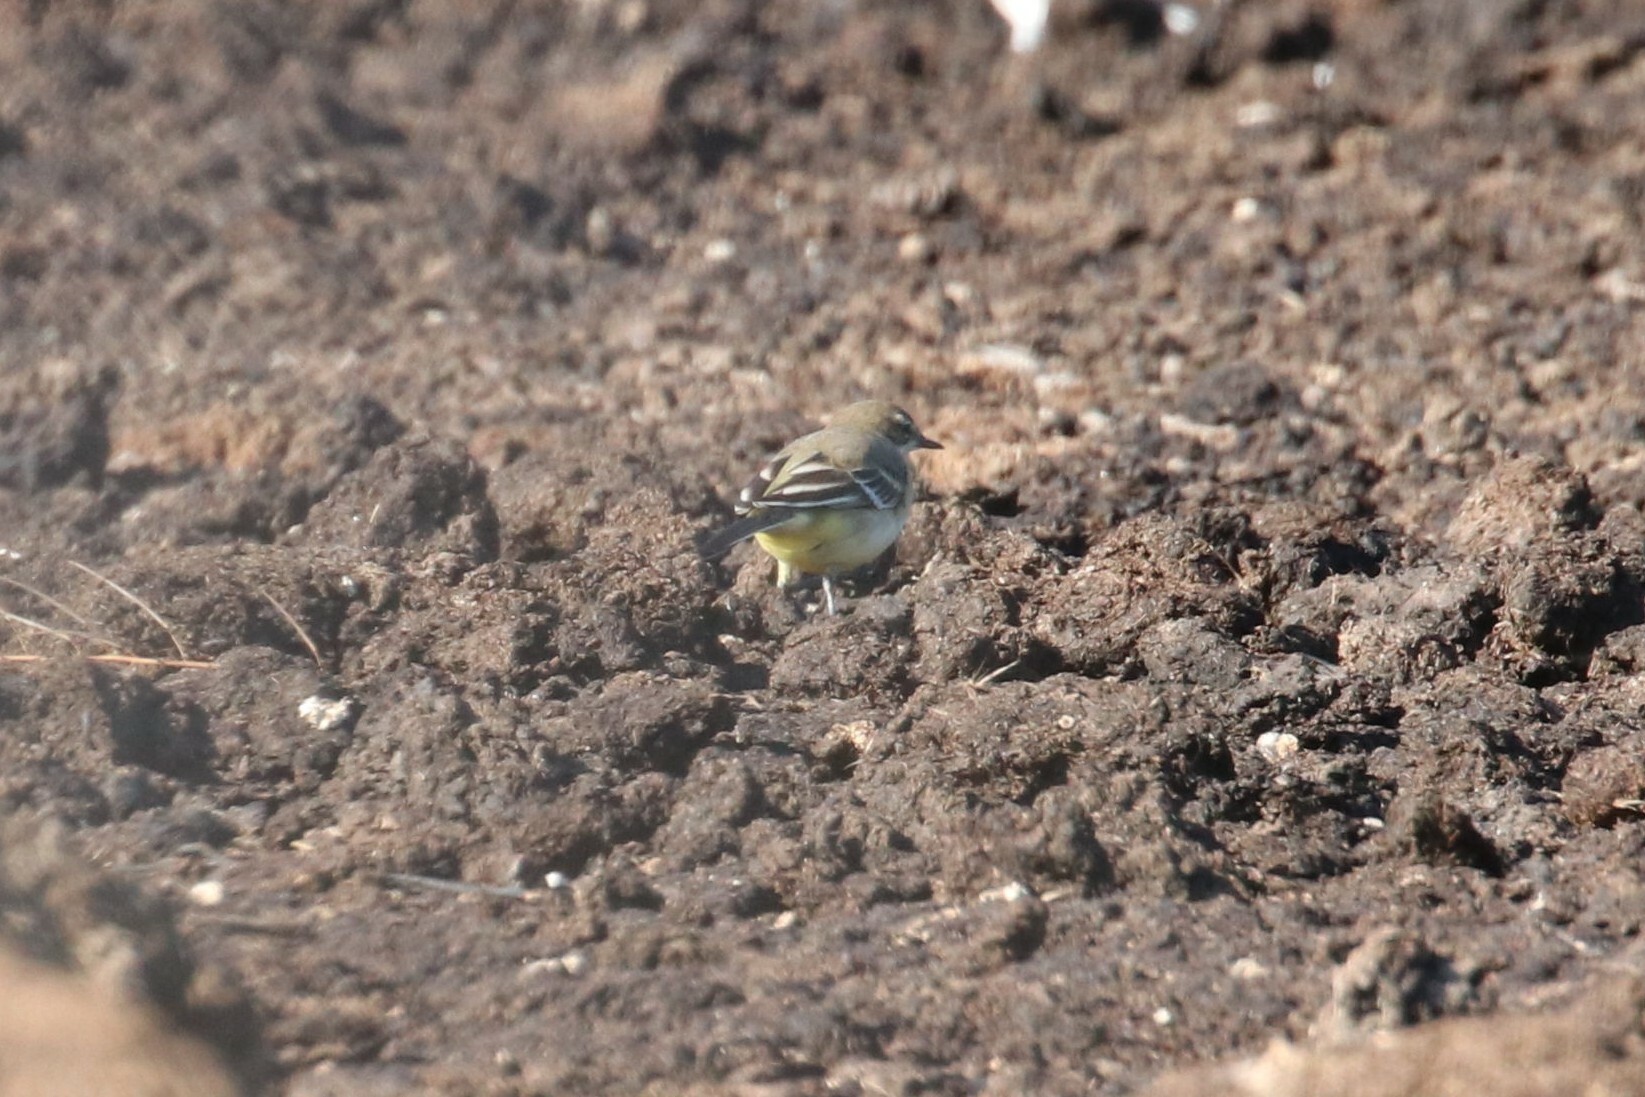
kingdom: Animalia
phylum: Chordata
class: Aves
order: Passeriformes
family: Motacillidae
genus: Motacilla
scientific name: Motacilla flava
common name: Western yellow wagtail
